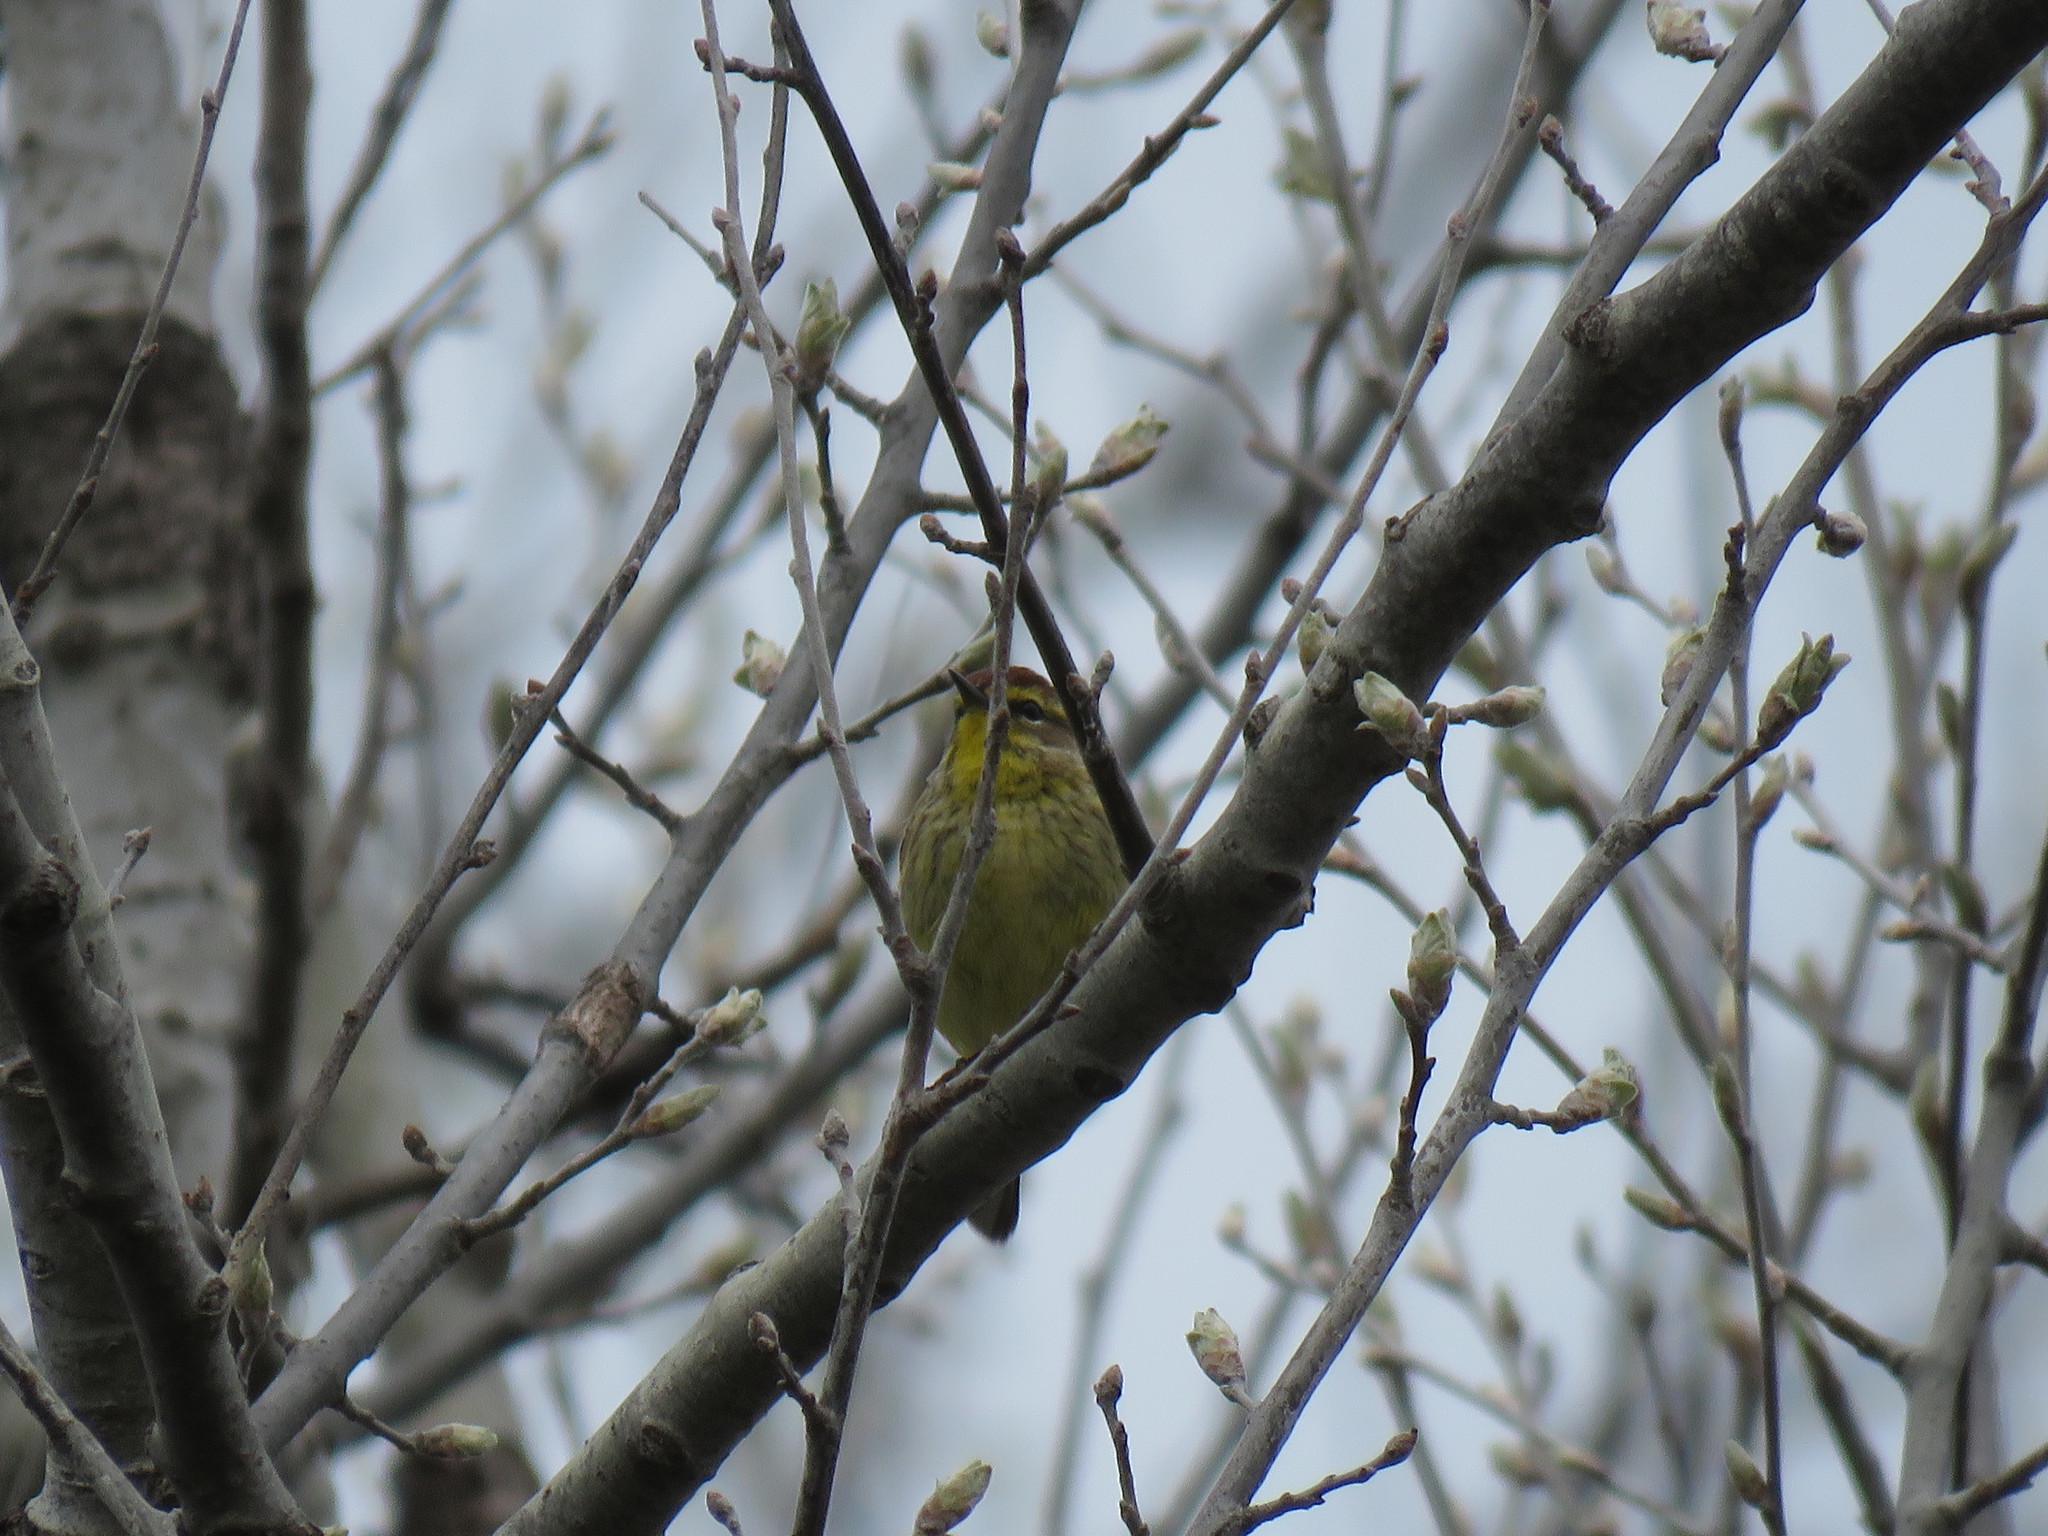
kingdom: Animalia
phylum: Chordata
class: Aves
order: Passeriformes
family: Parulidae
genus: Setophaga
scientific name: Setophaga palmarum
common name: Palm warbler
